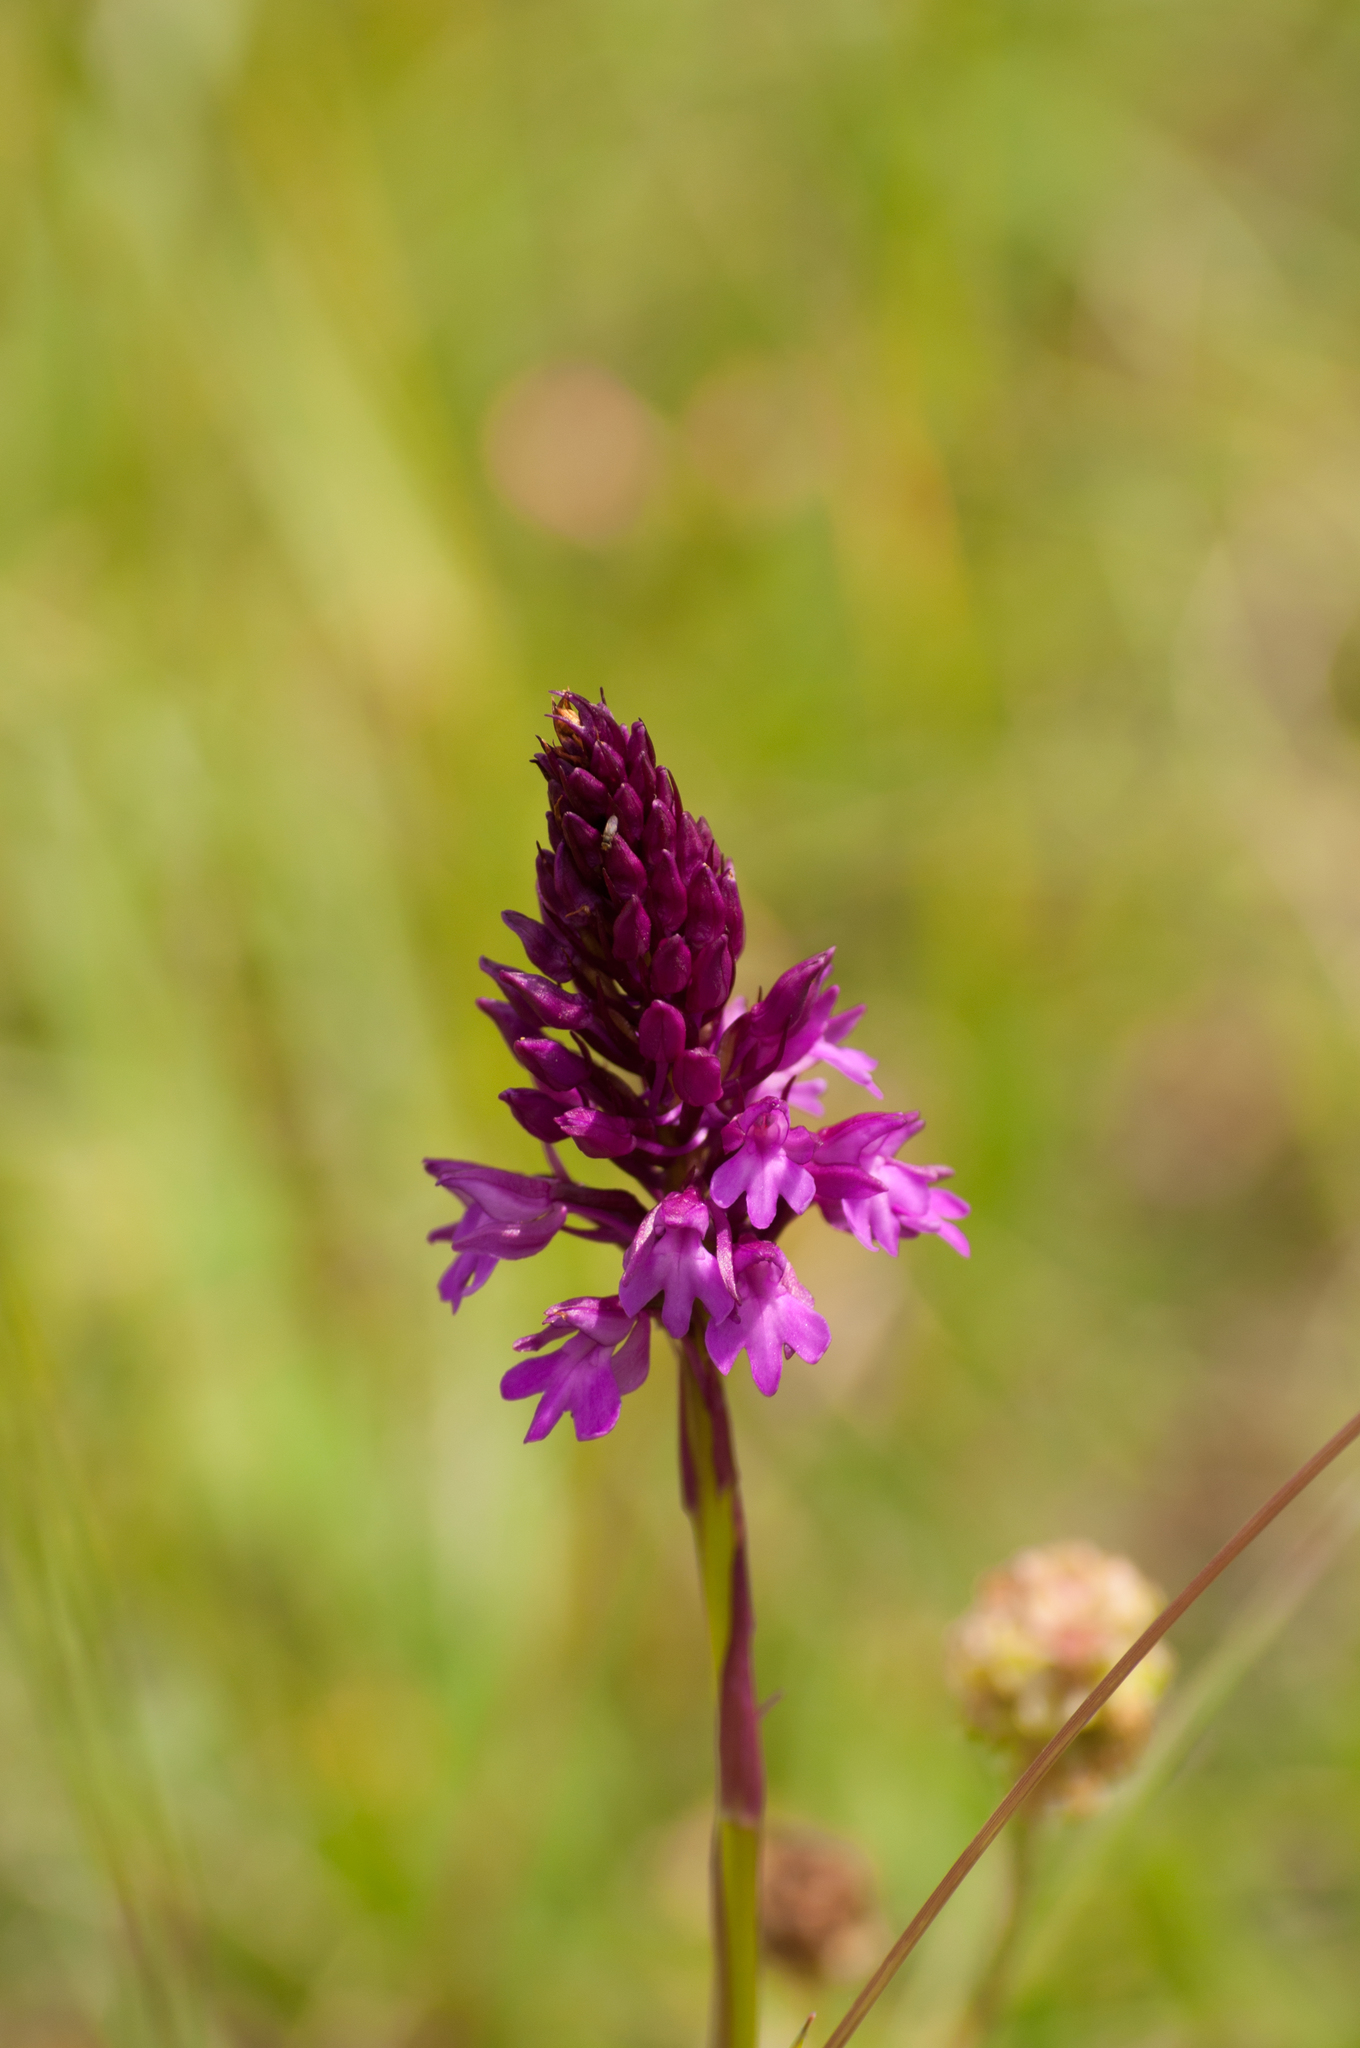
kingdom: Plantae
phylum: Tracheophyta
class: Liliopsida
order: Asparagales
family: Orchidaceae
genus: Anacamptis
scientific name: Anacamptis pyramidalis
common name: Pyramidal orchid
